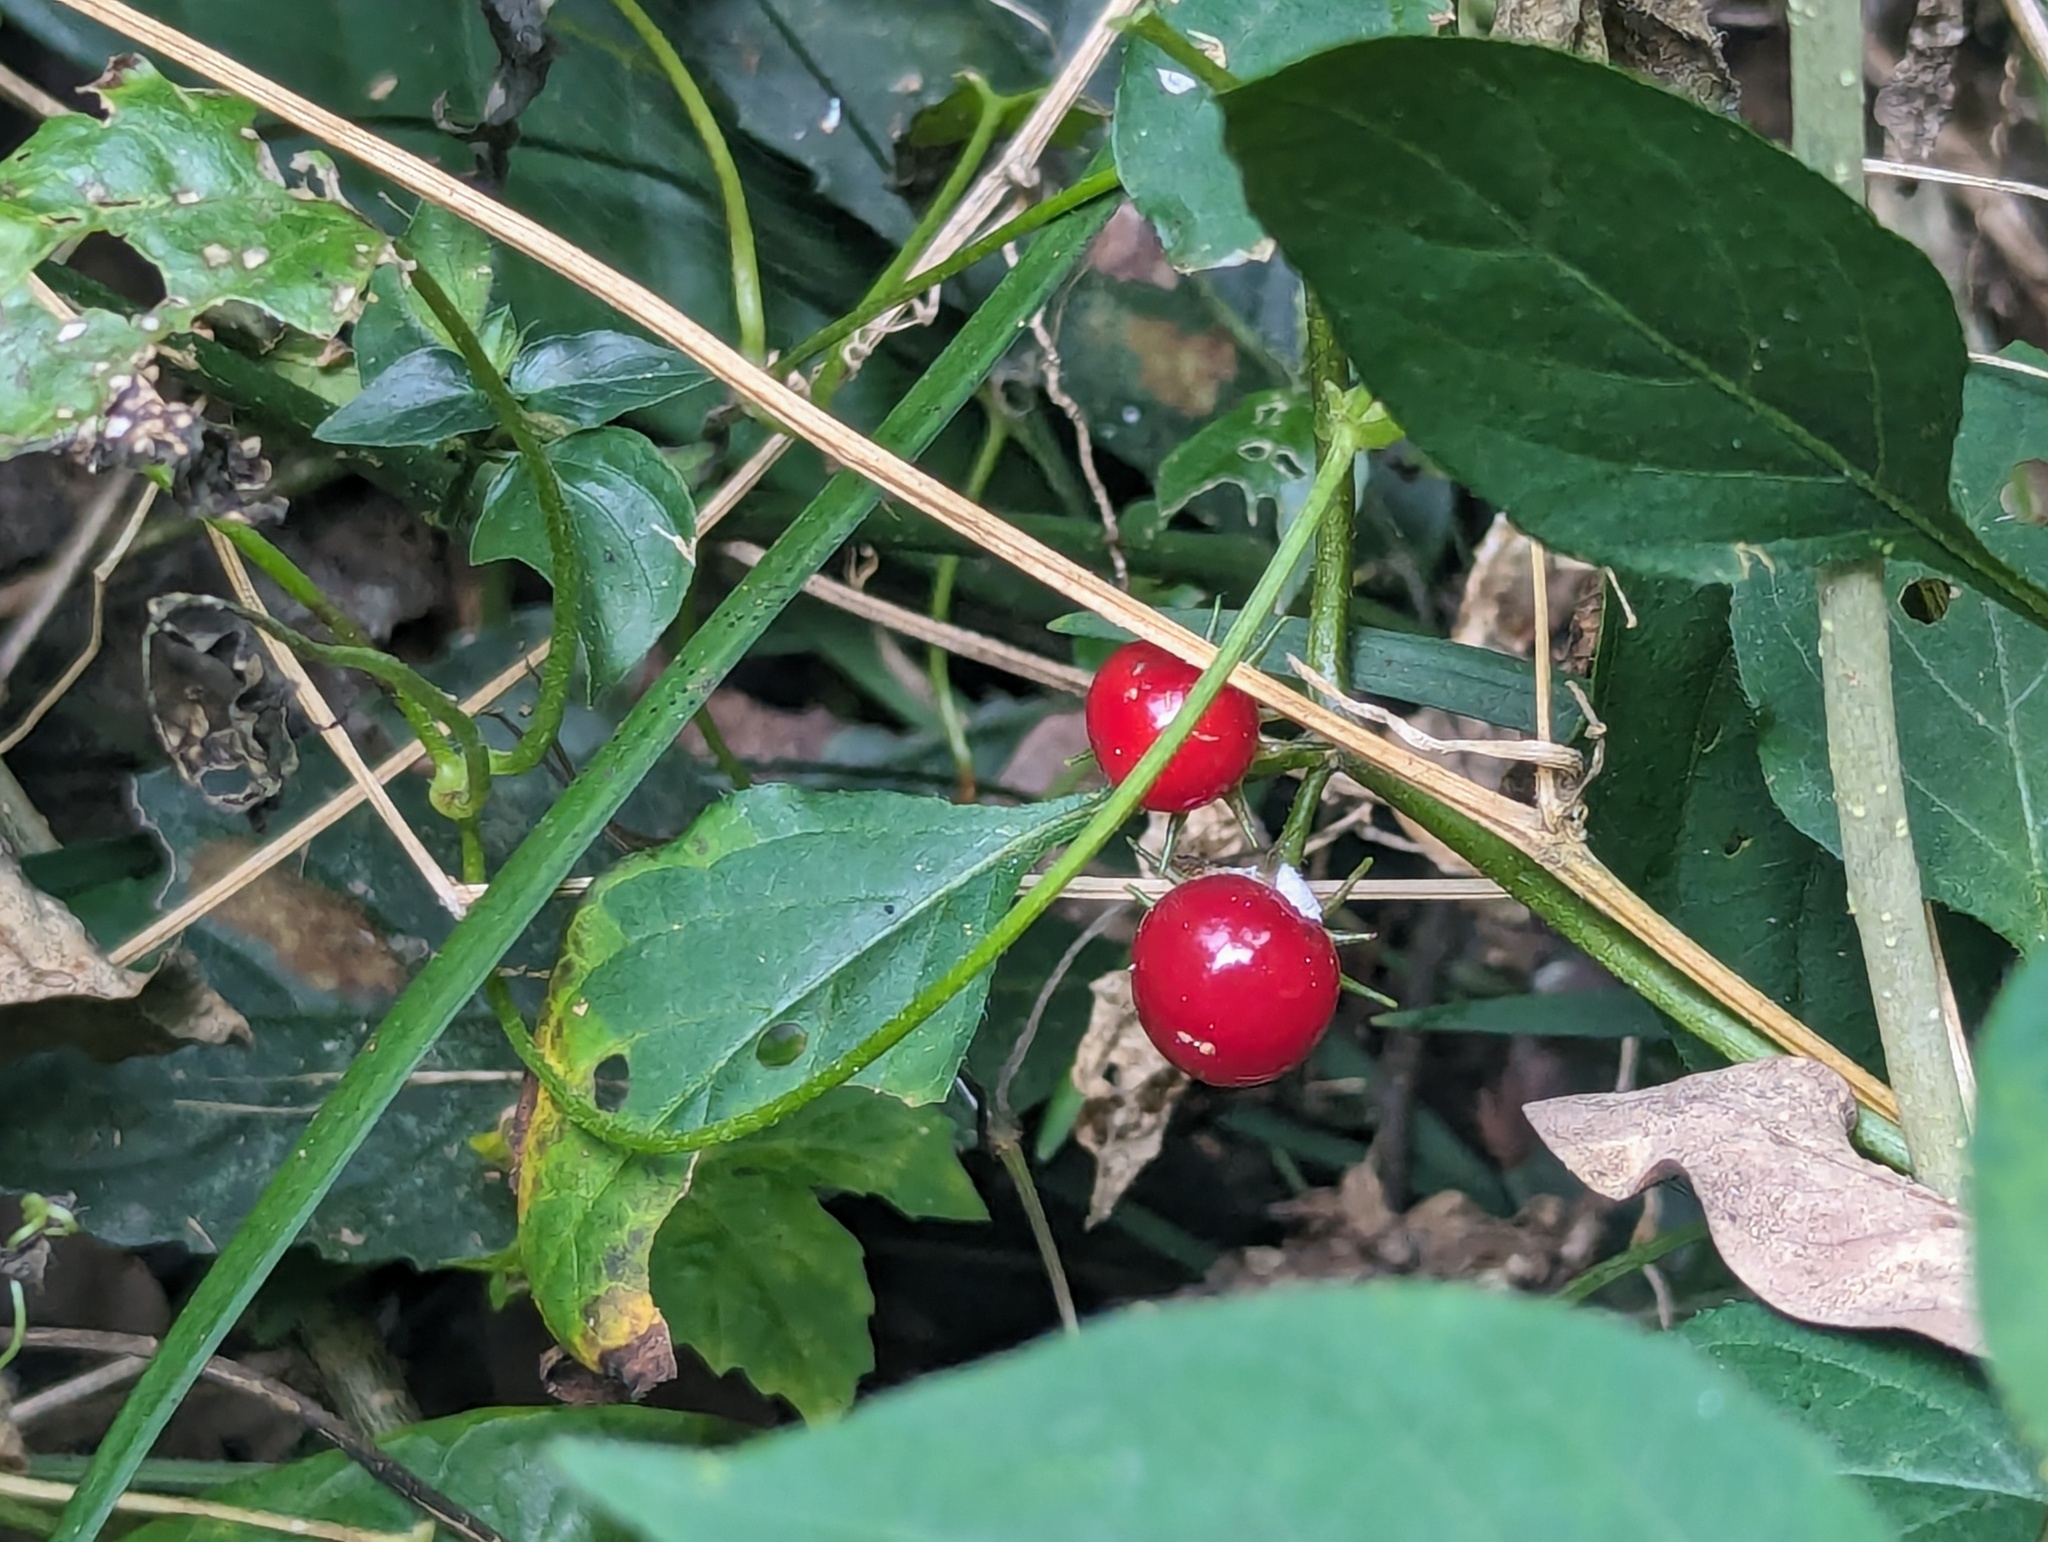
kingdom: Plantae
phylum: Tracheophyta
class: Magnoliopsida
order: Solanales
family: Solanaceae
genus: Lycianthes
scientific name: Lycianthes biflora
